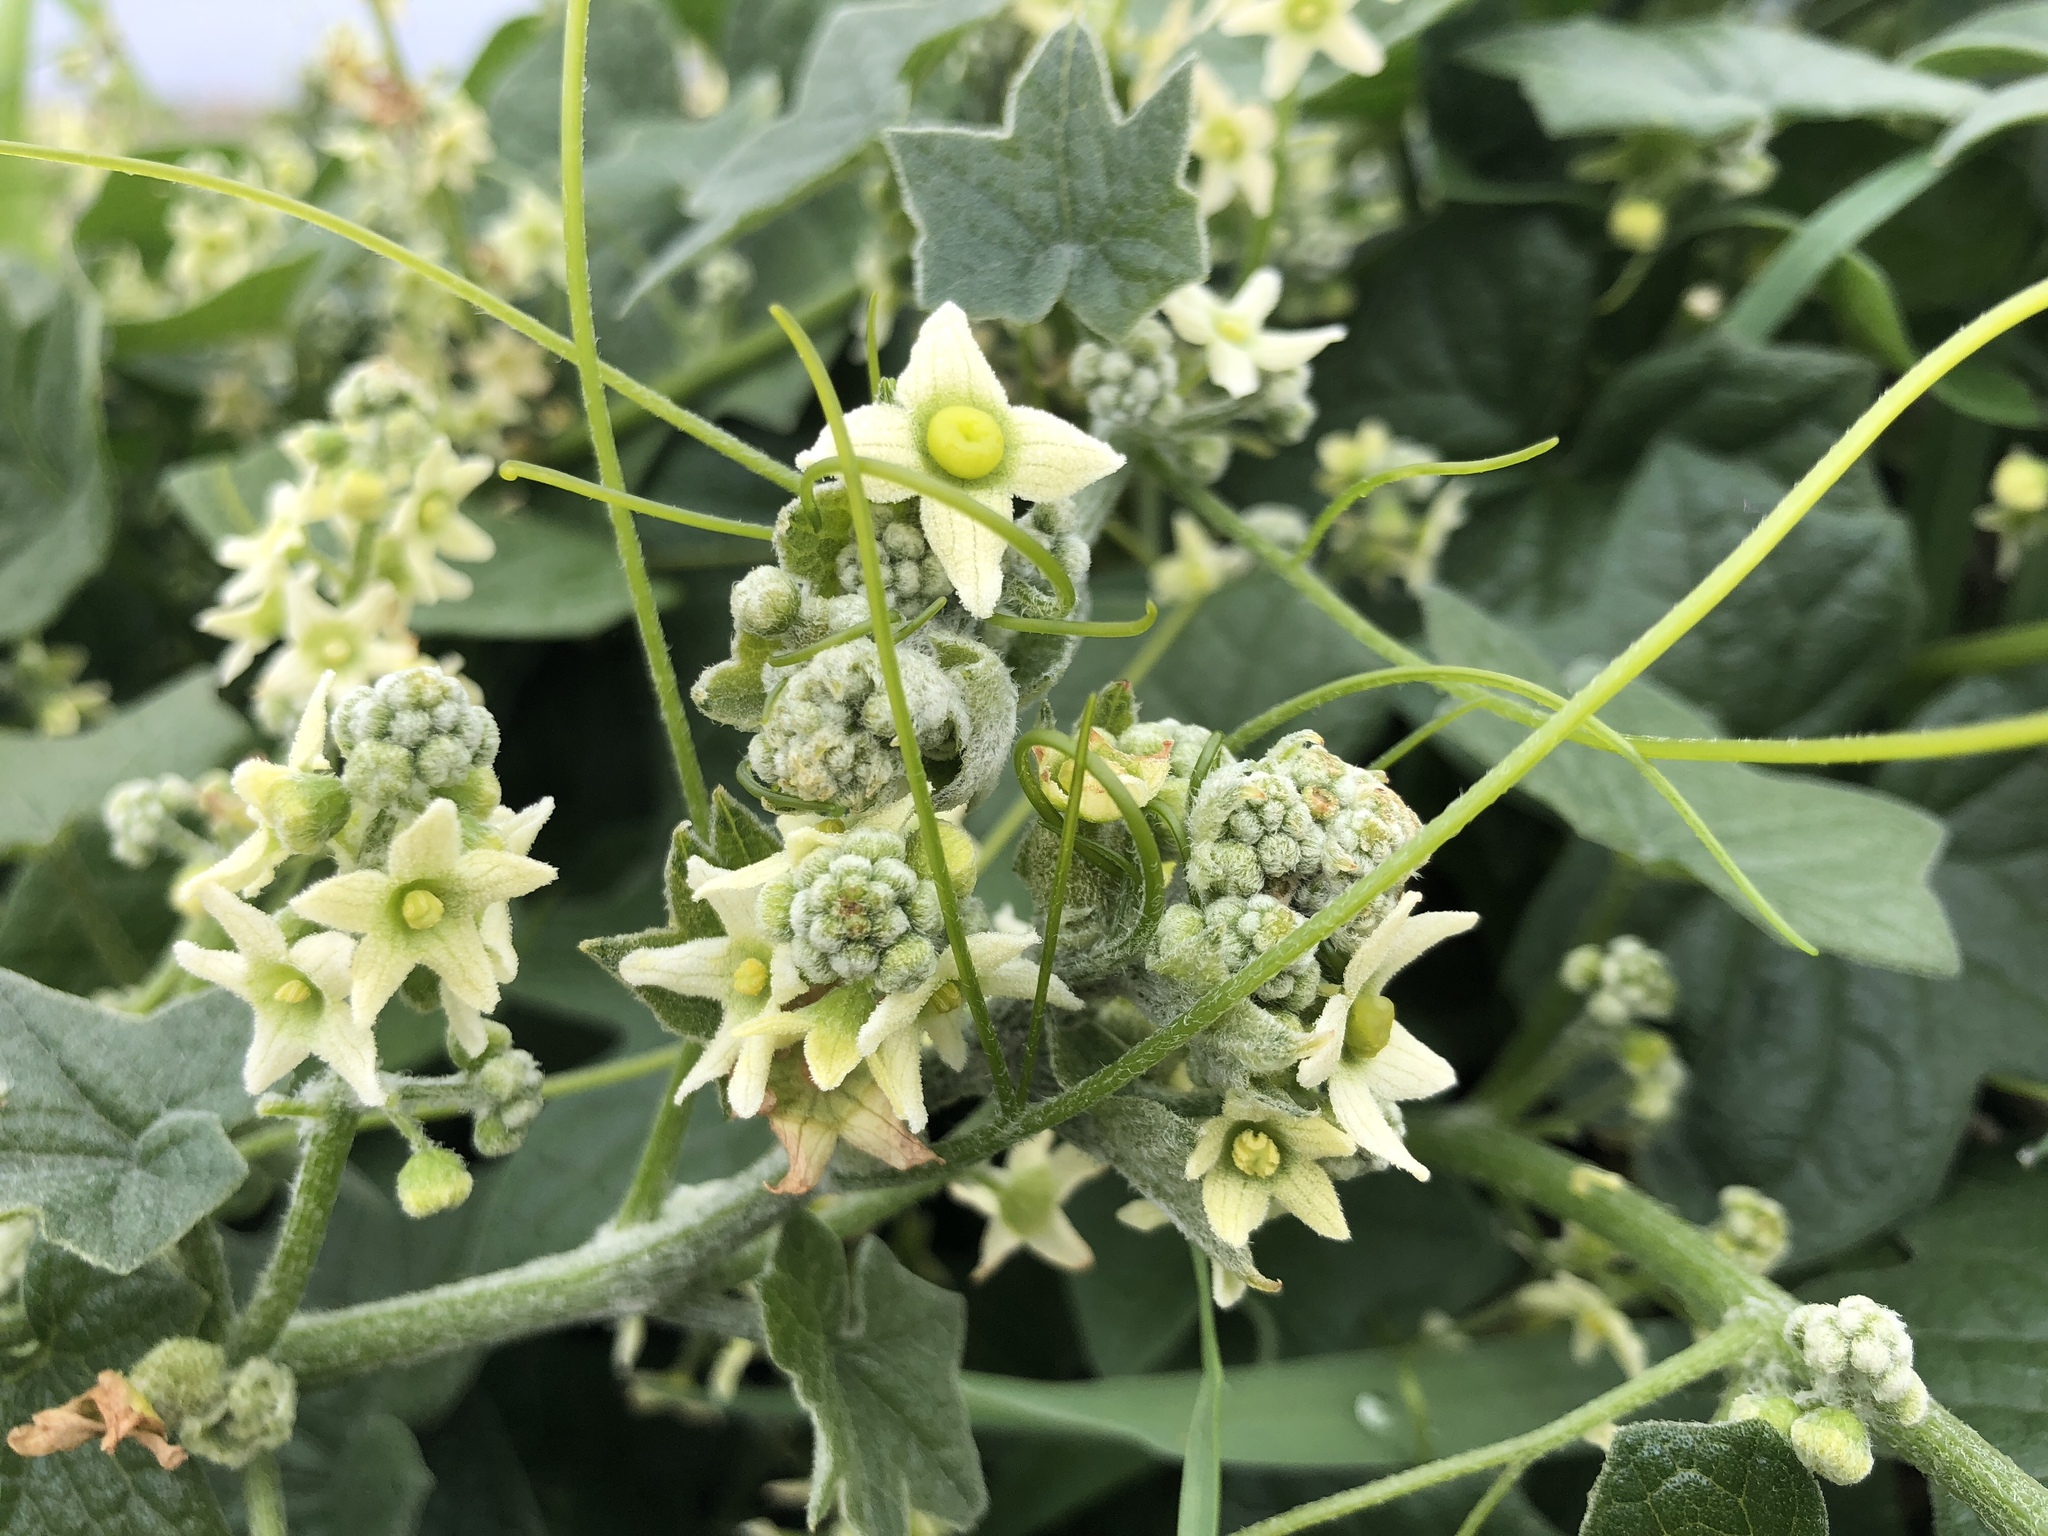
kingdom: Plantae
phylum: Tracheophyta
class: Magnoliopsida
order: Cucurbitales
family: Cucurbitaceae
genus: Marah
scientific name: Marah fabacea
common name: California manroot
